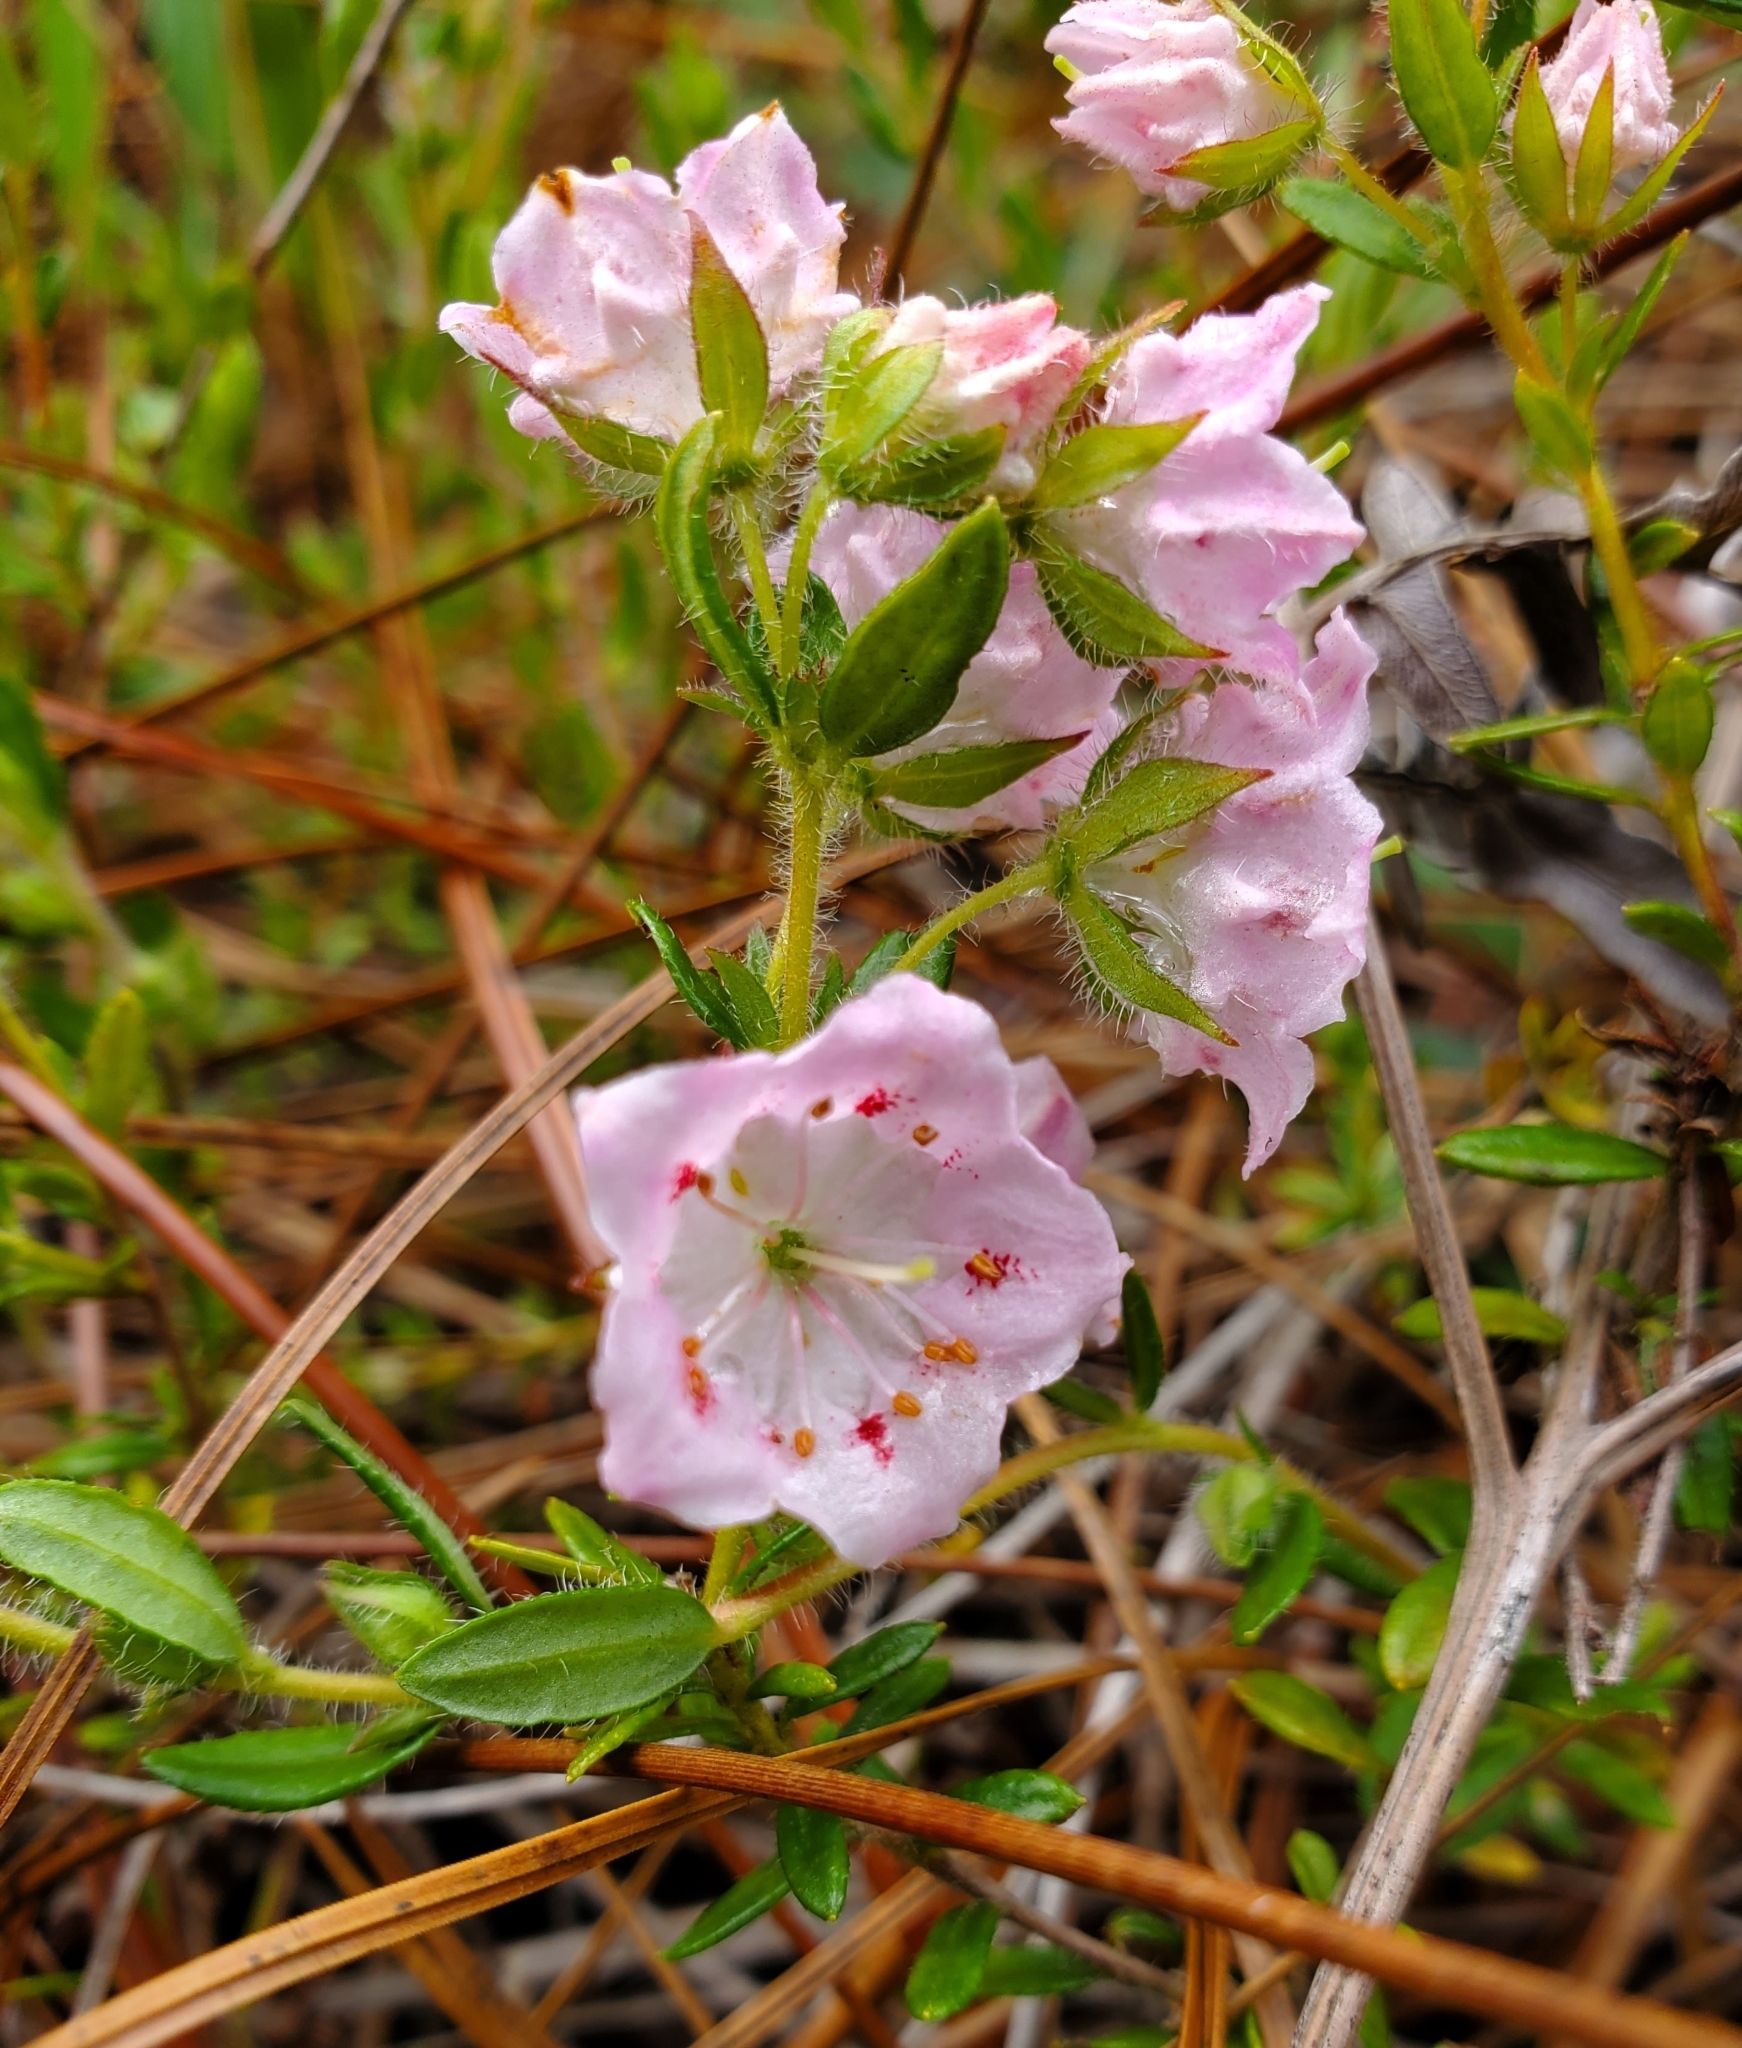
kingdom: Plantae
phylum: Tracheophyta
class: Magnoliopsida
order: Ericales
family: Ericaceae
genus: Kalmia
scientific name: Kalmia hirsuta
